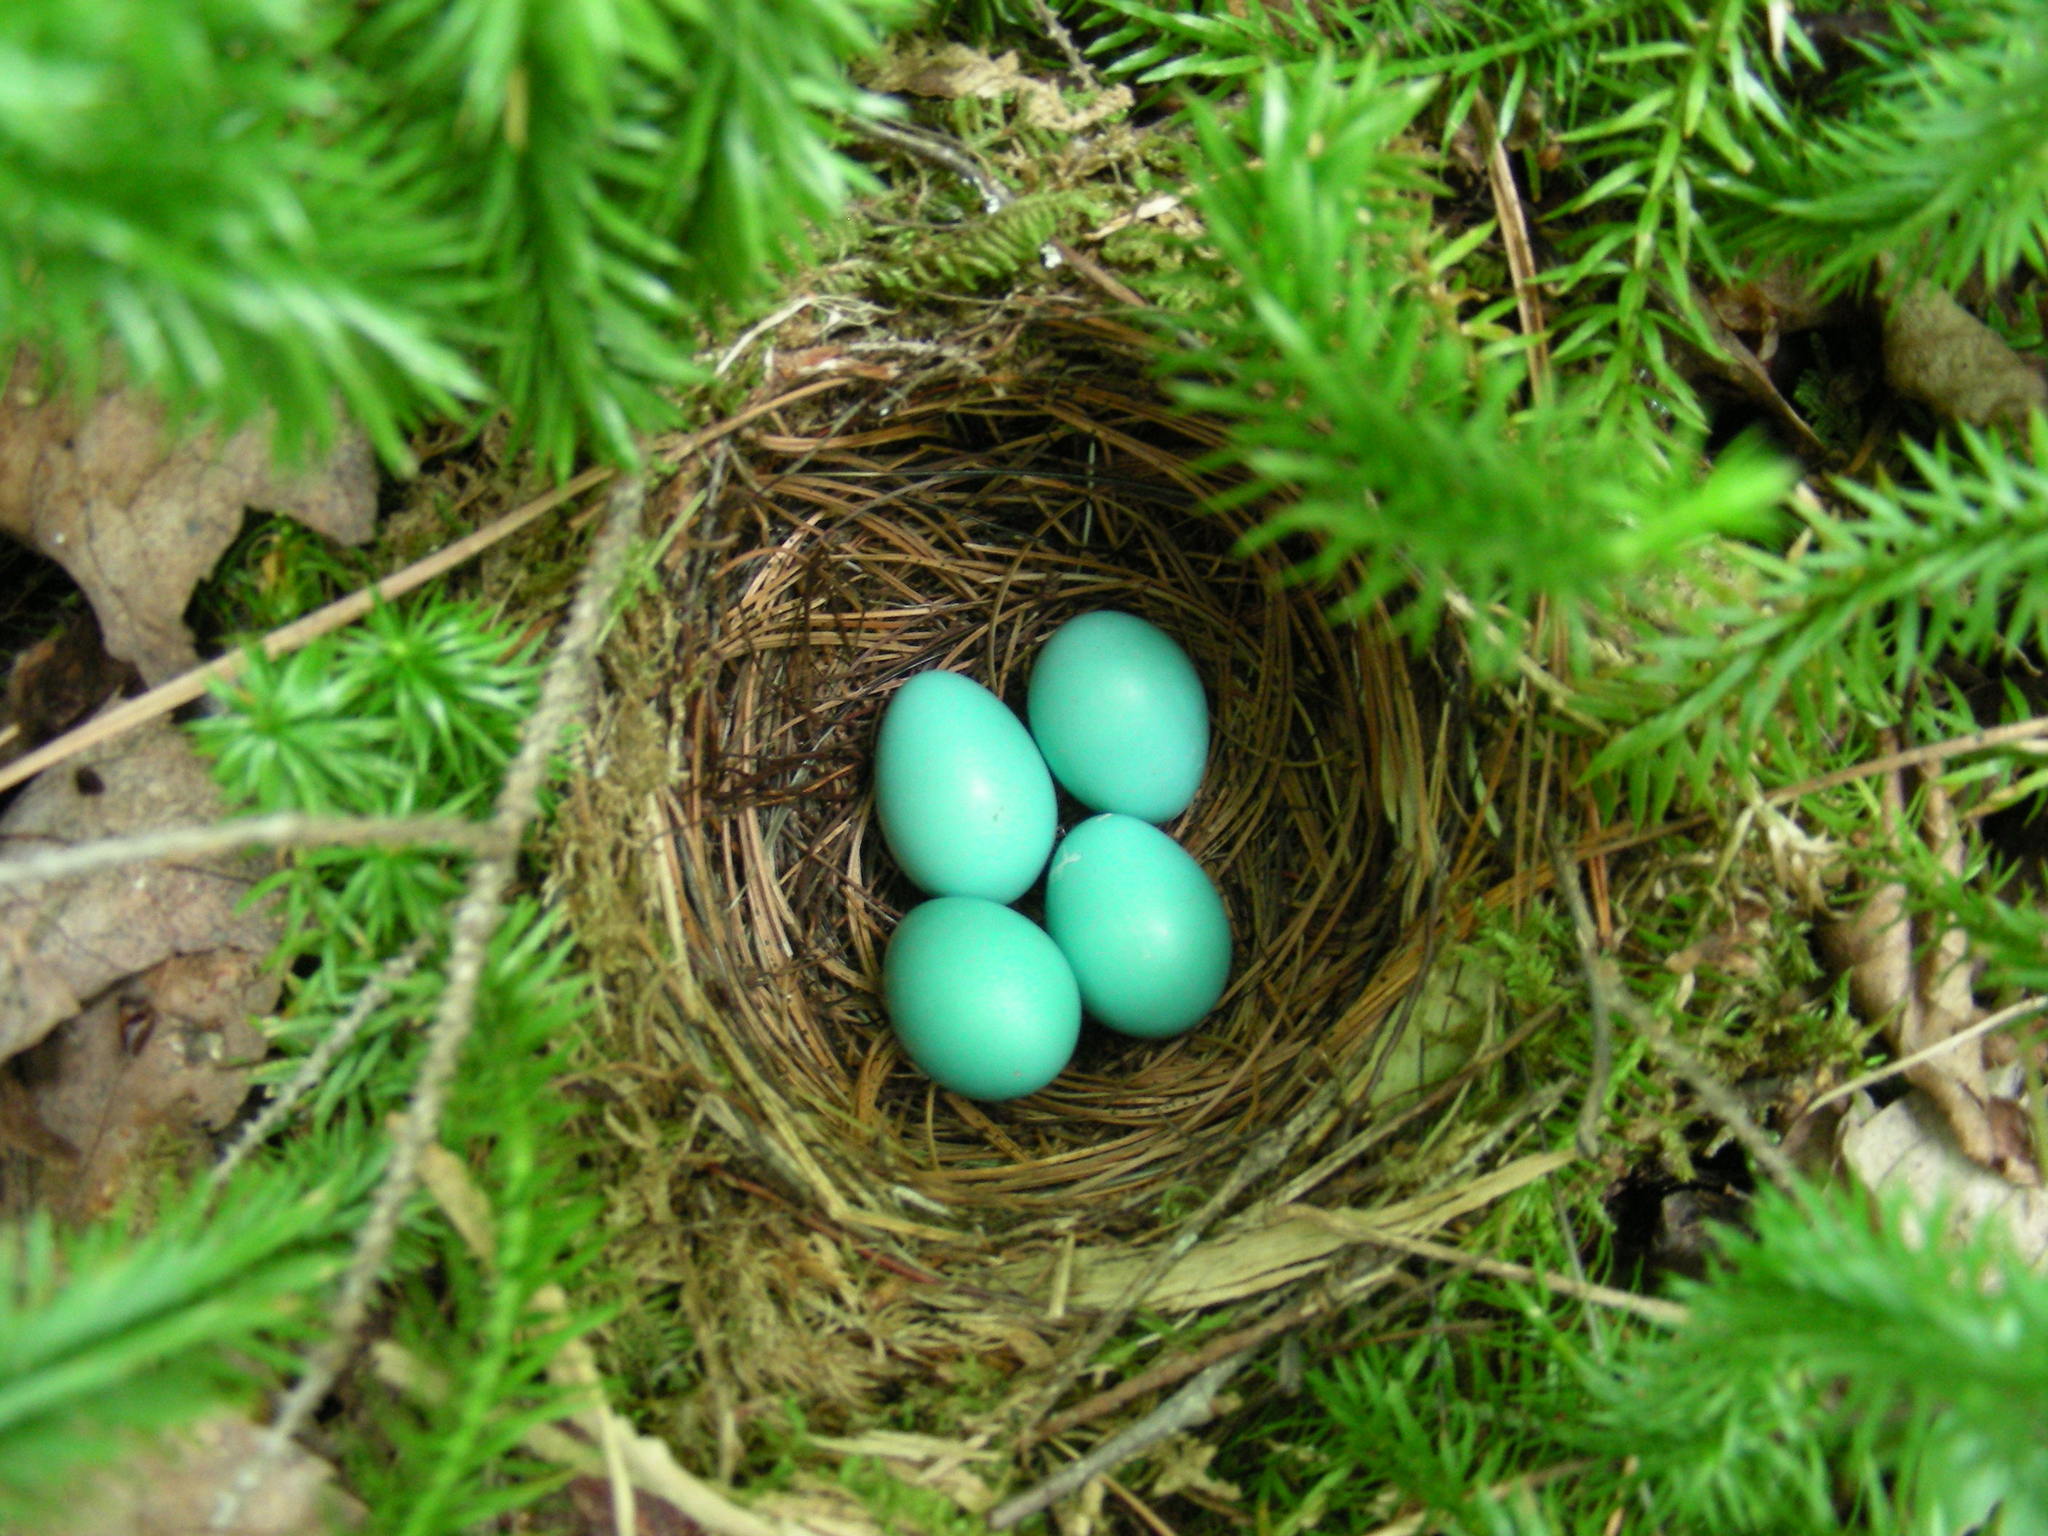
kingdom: Animalia
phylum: Chordata
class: Aves
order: Passeriformes
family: Turdidae
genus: Catharus
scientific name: Catharus guttatus
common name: Hermit thrush
